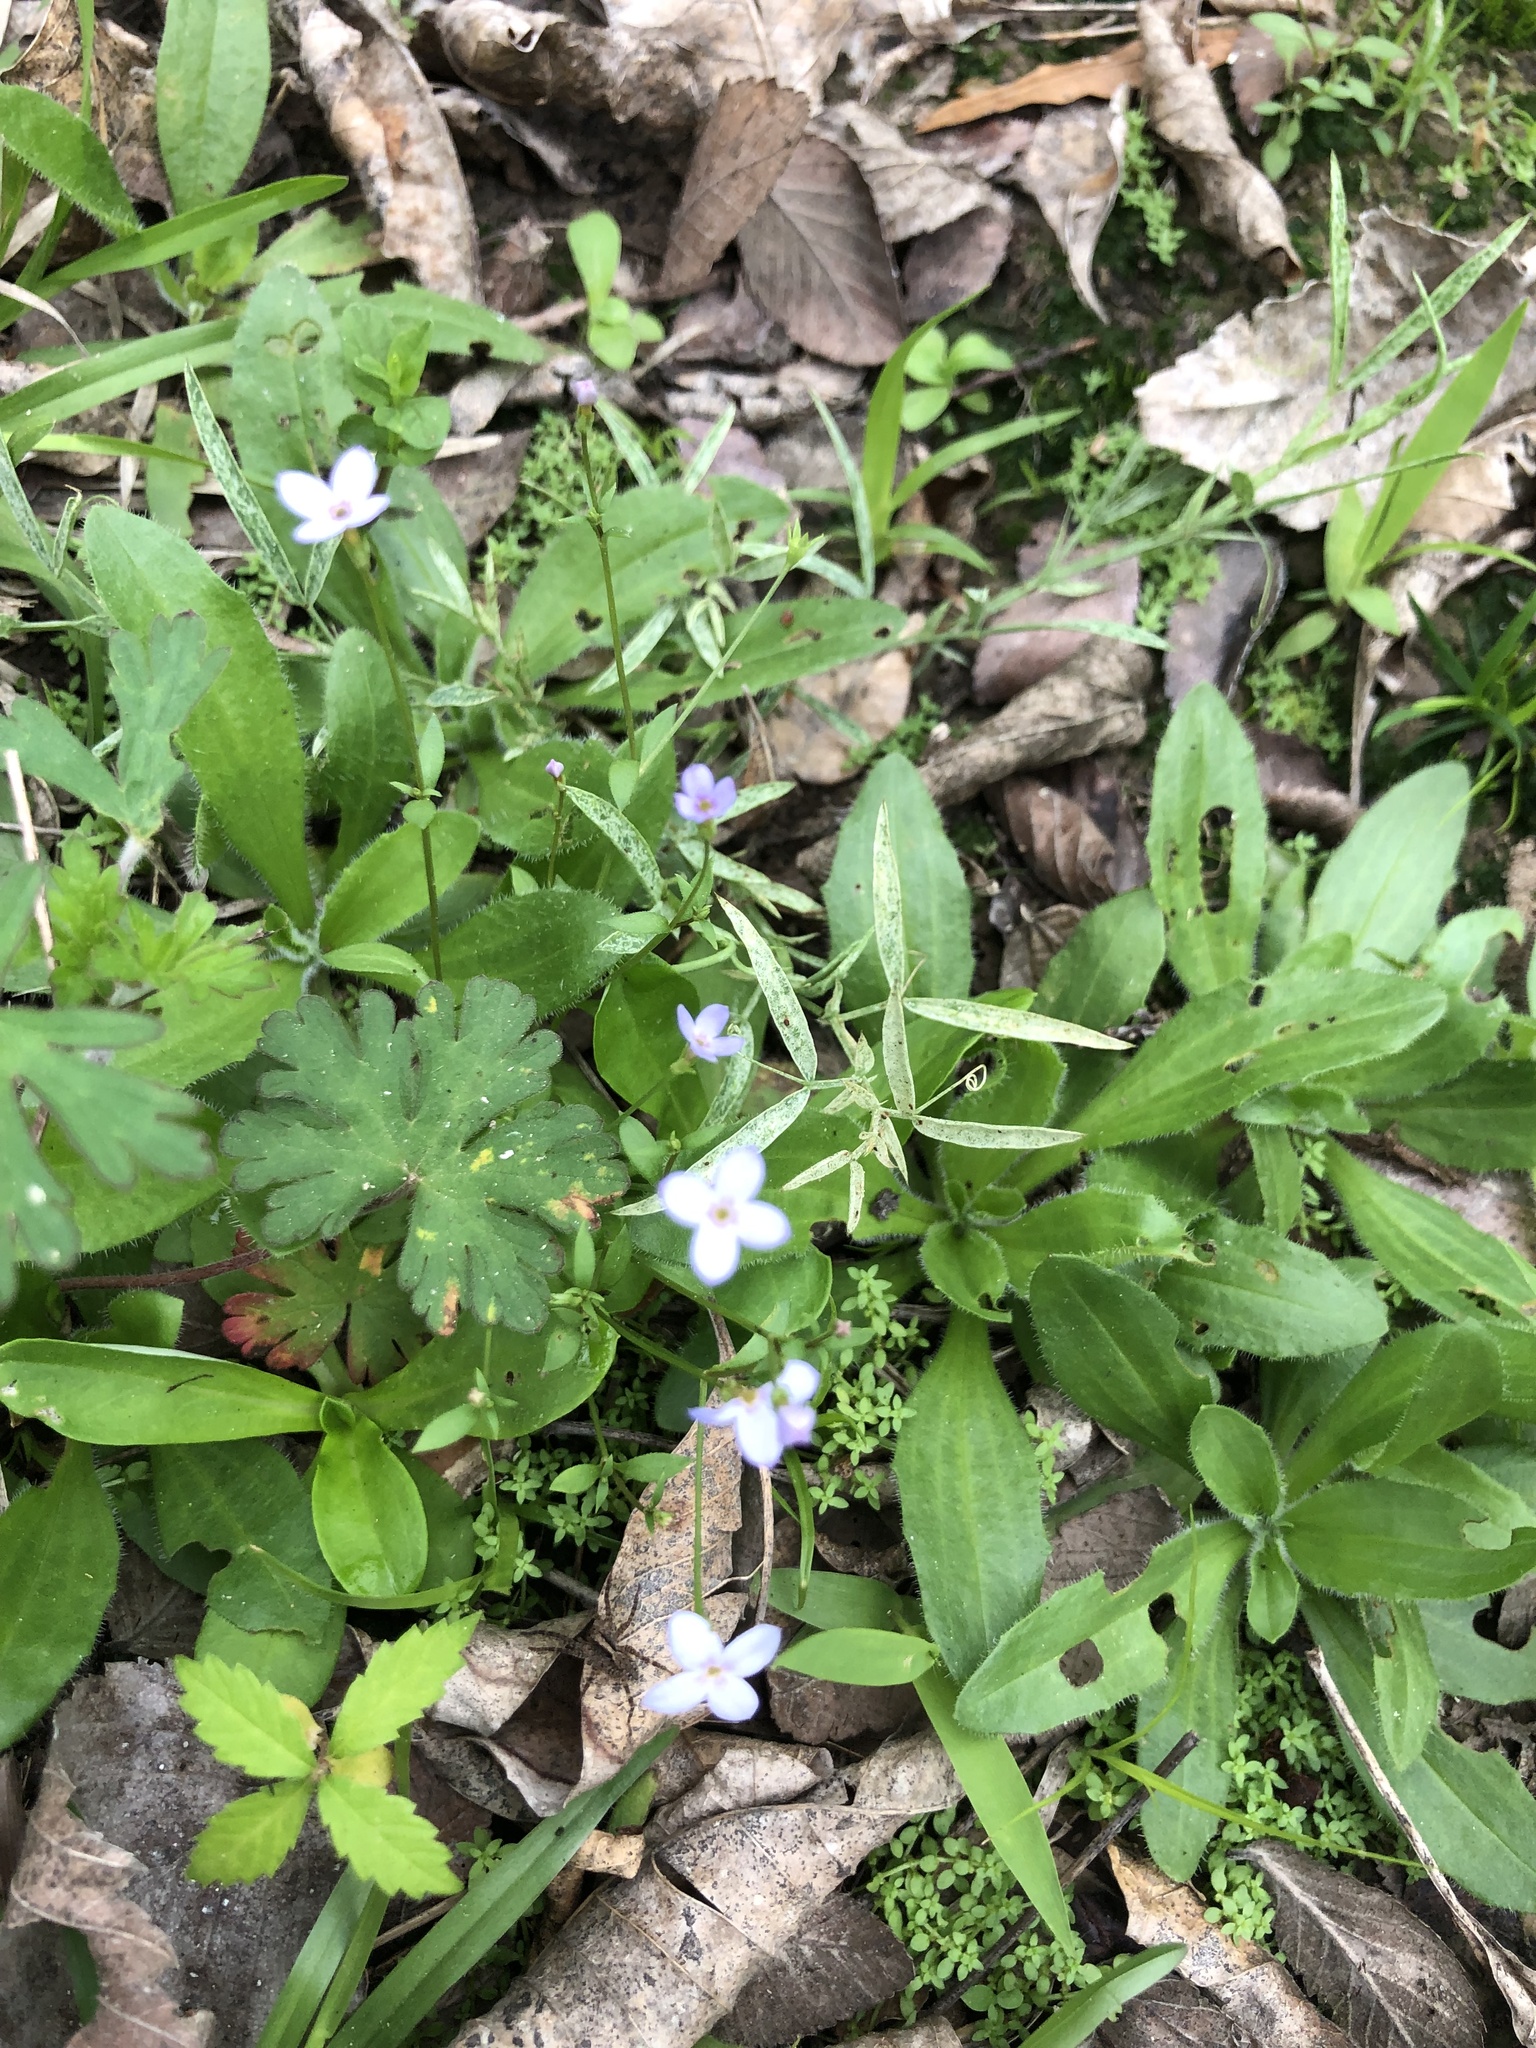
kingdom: Plantae
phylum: Tracheophyta
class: Magnoliopsida
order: Gentianales
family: Rubiaceae
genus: Houstonia
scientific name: Houstonia pusilla
